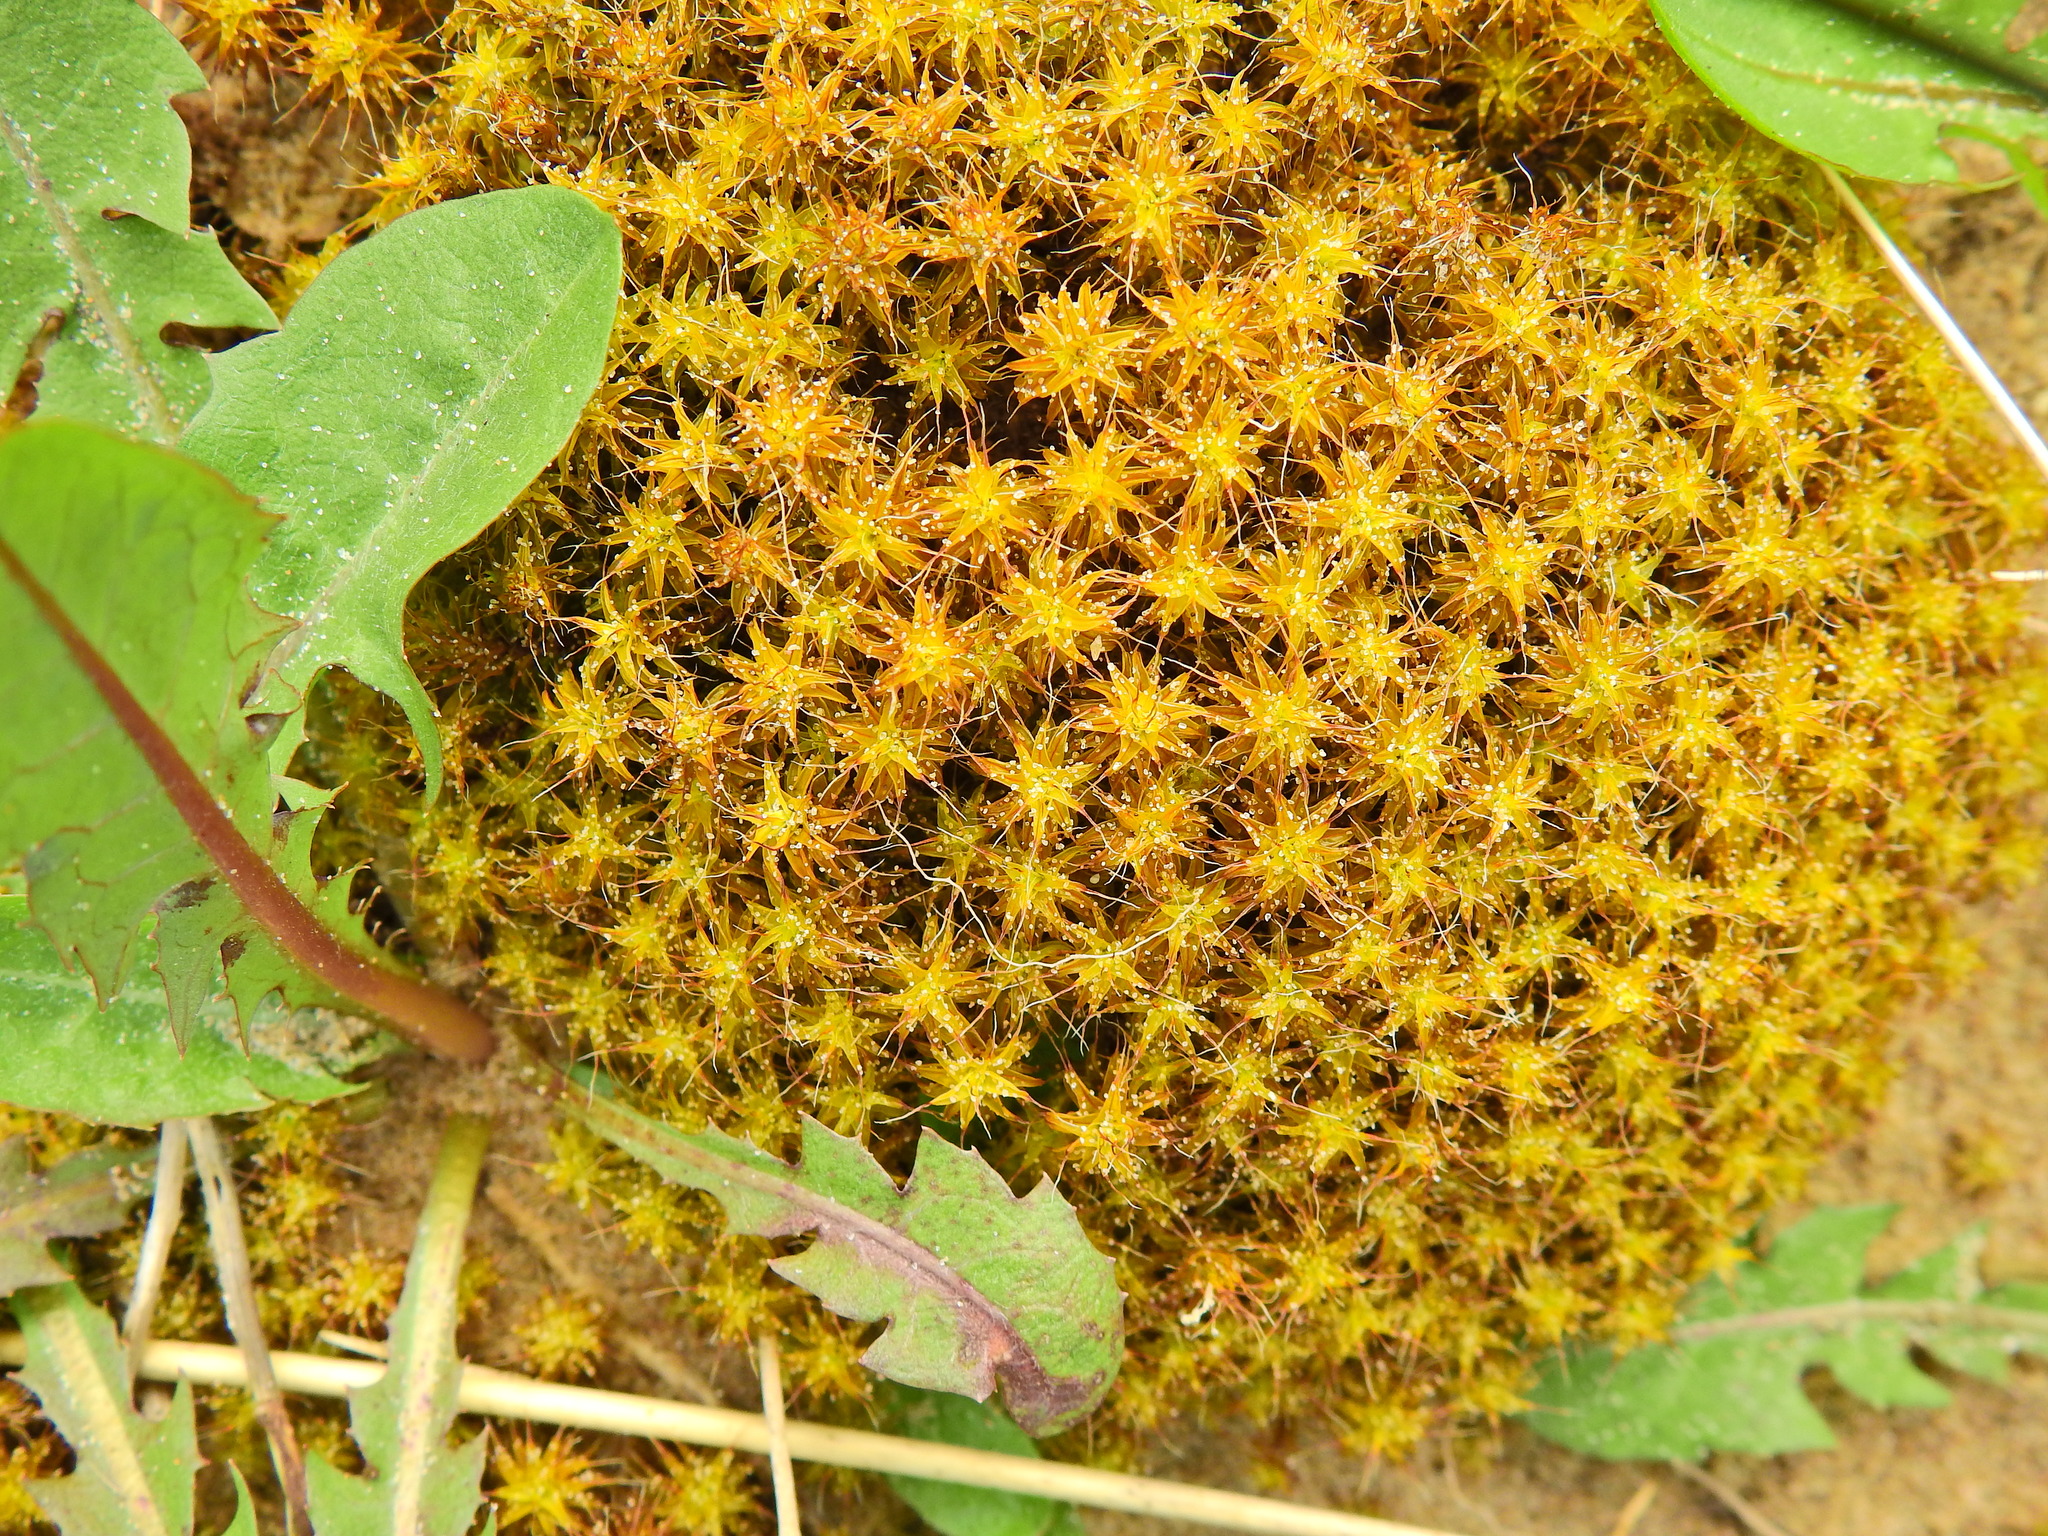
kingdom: Plantae
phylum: Bryophyta
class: Bryopsida
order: Pottiales
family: Pottiaceae
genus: Syntrichia
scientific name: Syntrichia ruralis
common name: Sidewalk screw moss
